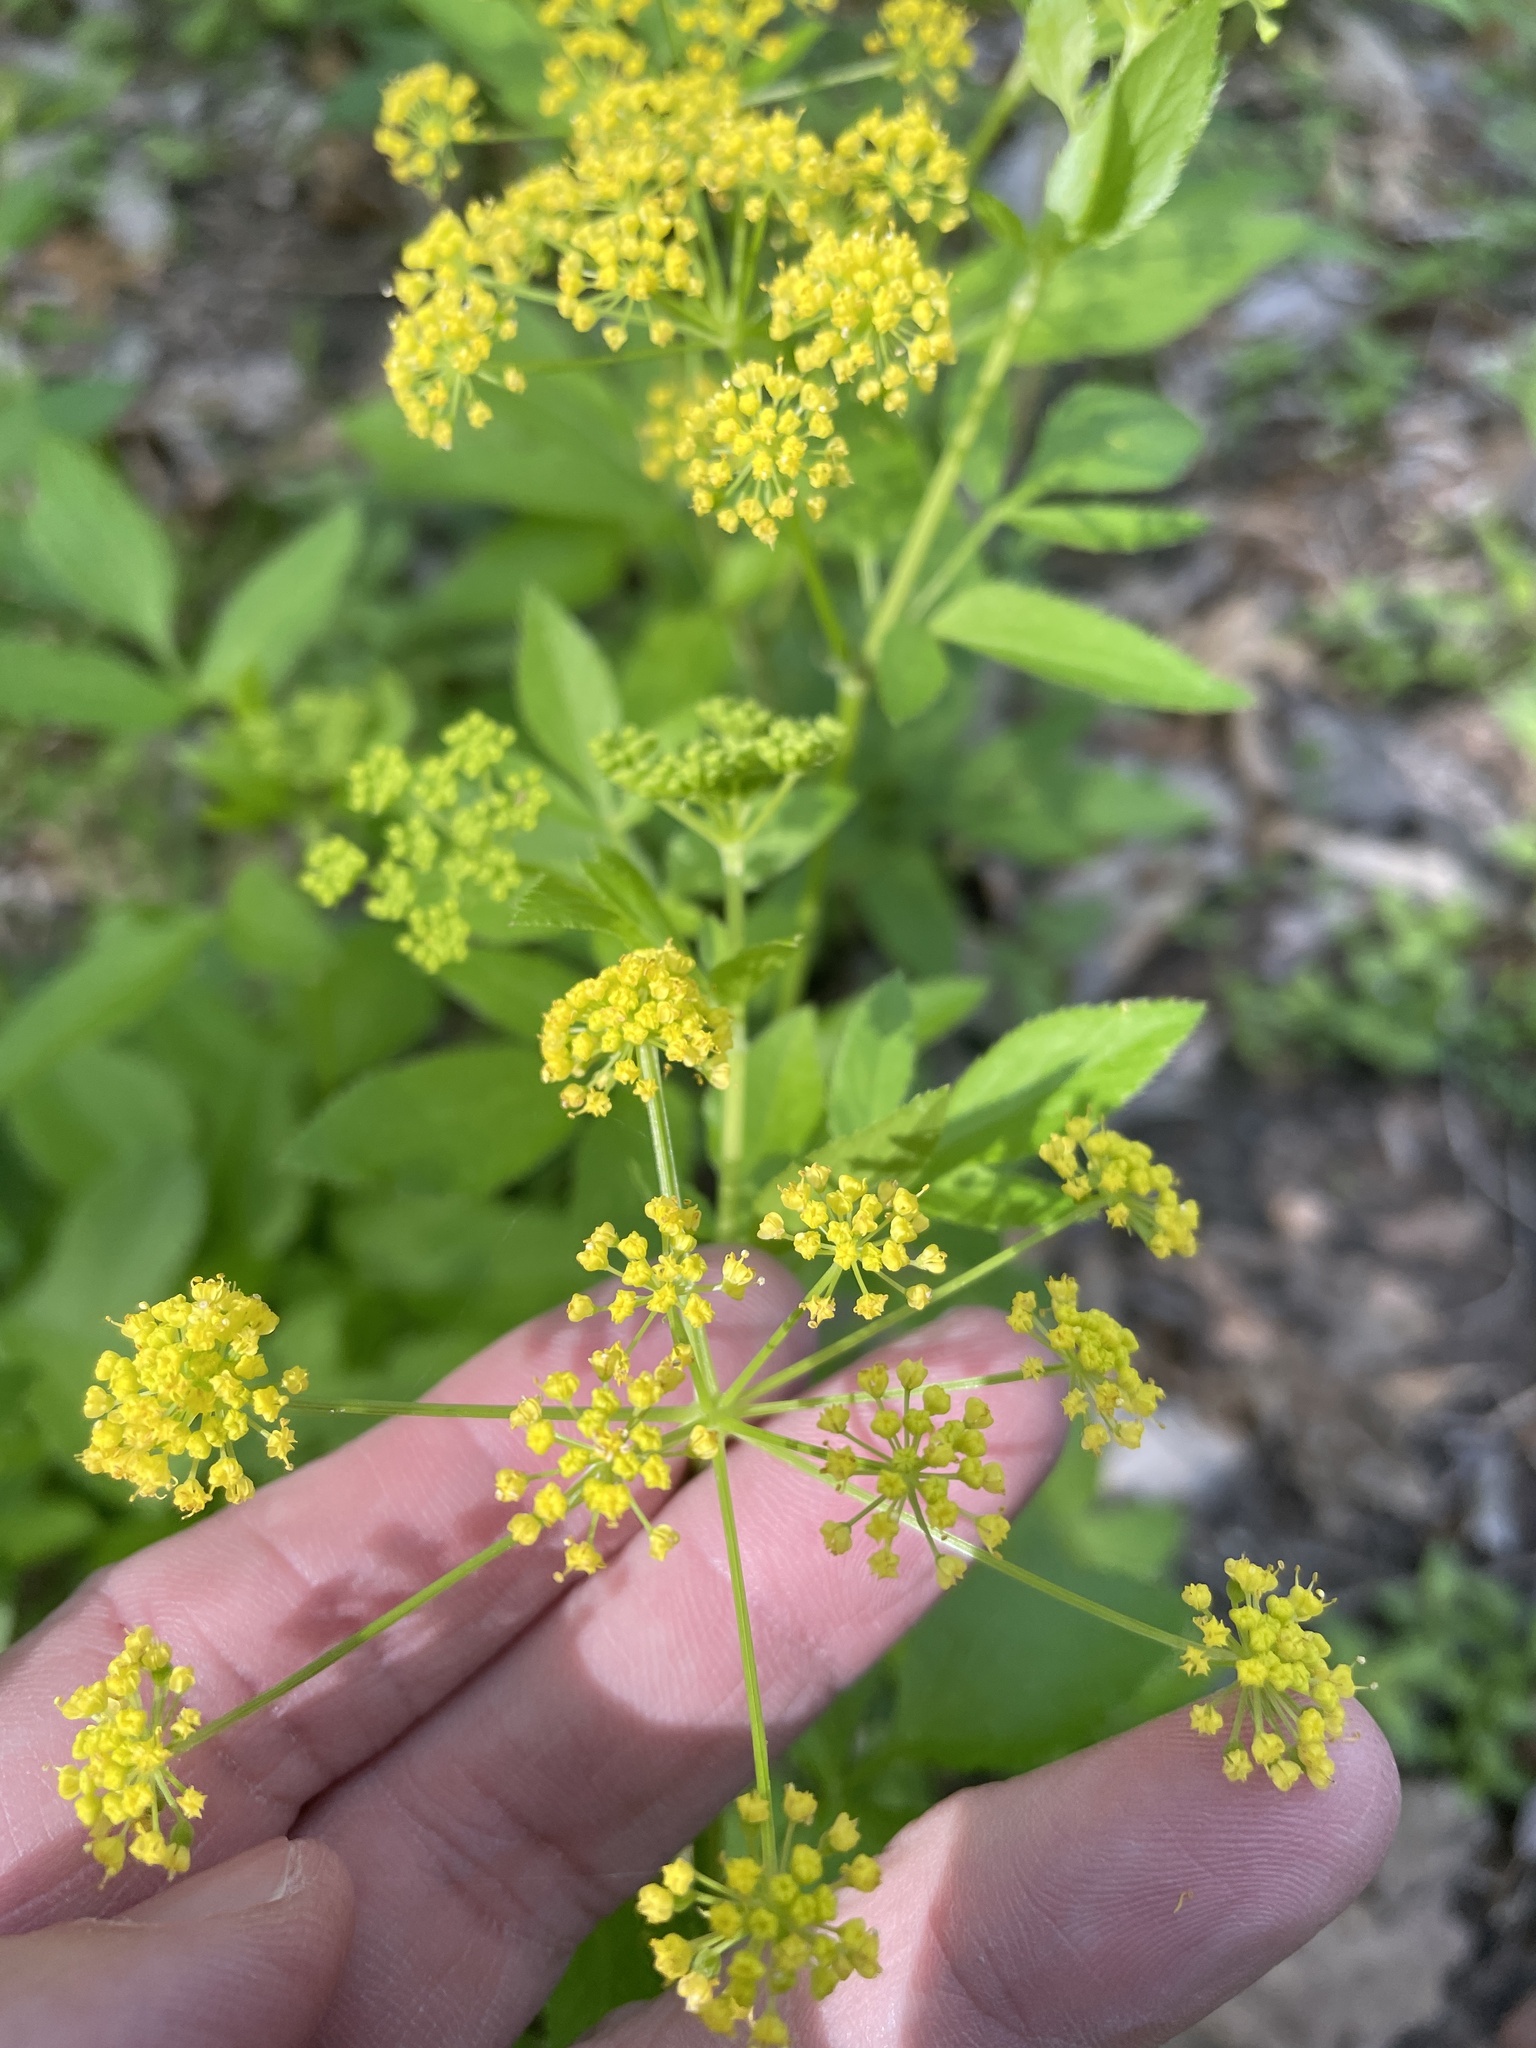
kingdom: Plantae
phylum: Tracheophyta
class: Magnoliopsida
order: Apiales
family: Apiaceae
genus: Zizia
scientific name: Zizia aurea
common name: Golden alexanders
